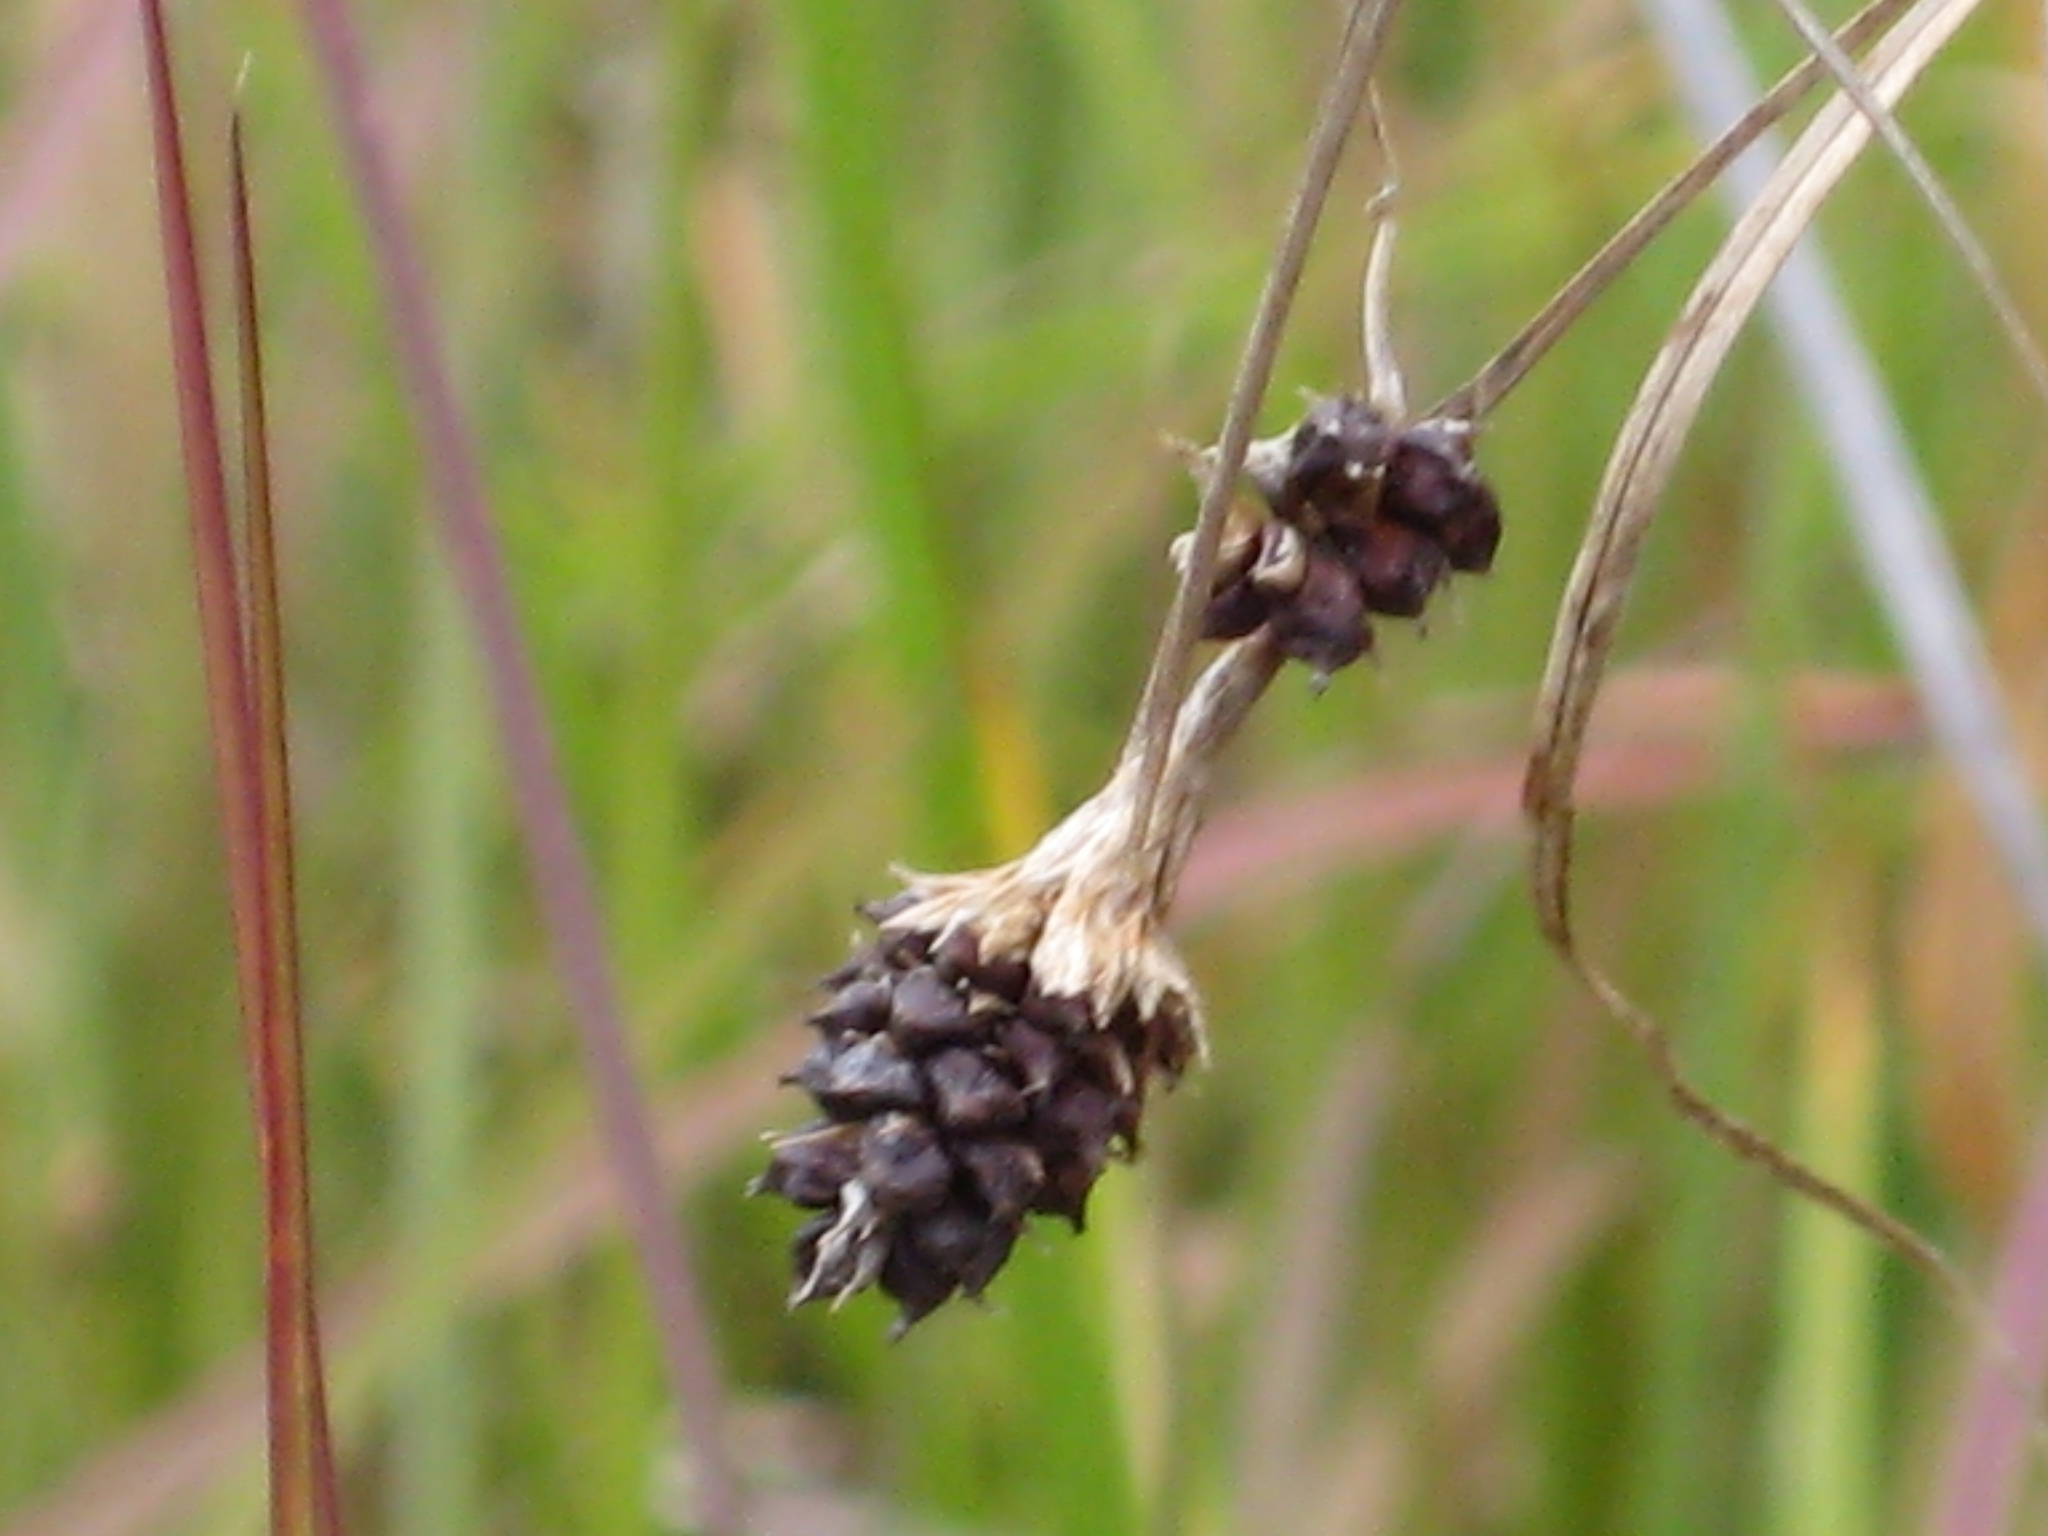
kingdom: Plantae
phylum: Tracheophyta
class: Liliopsida
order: Poales
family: Cyperaceae
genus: Carex
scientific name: Carex bushii
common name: Bush's sedge
